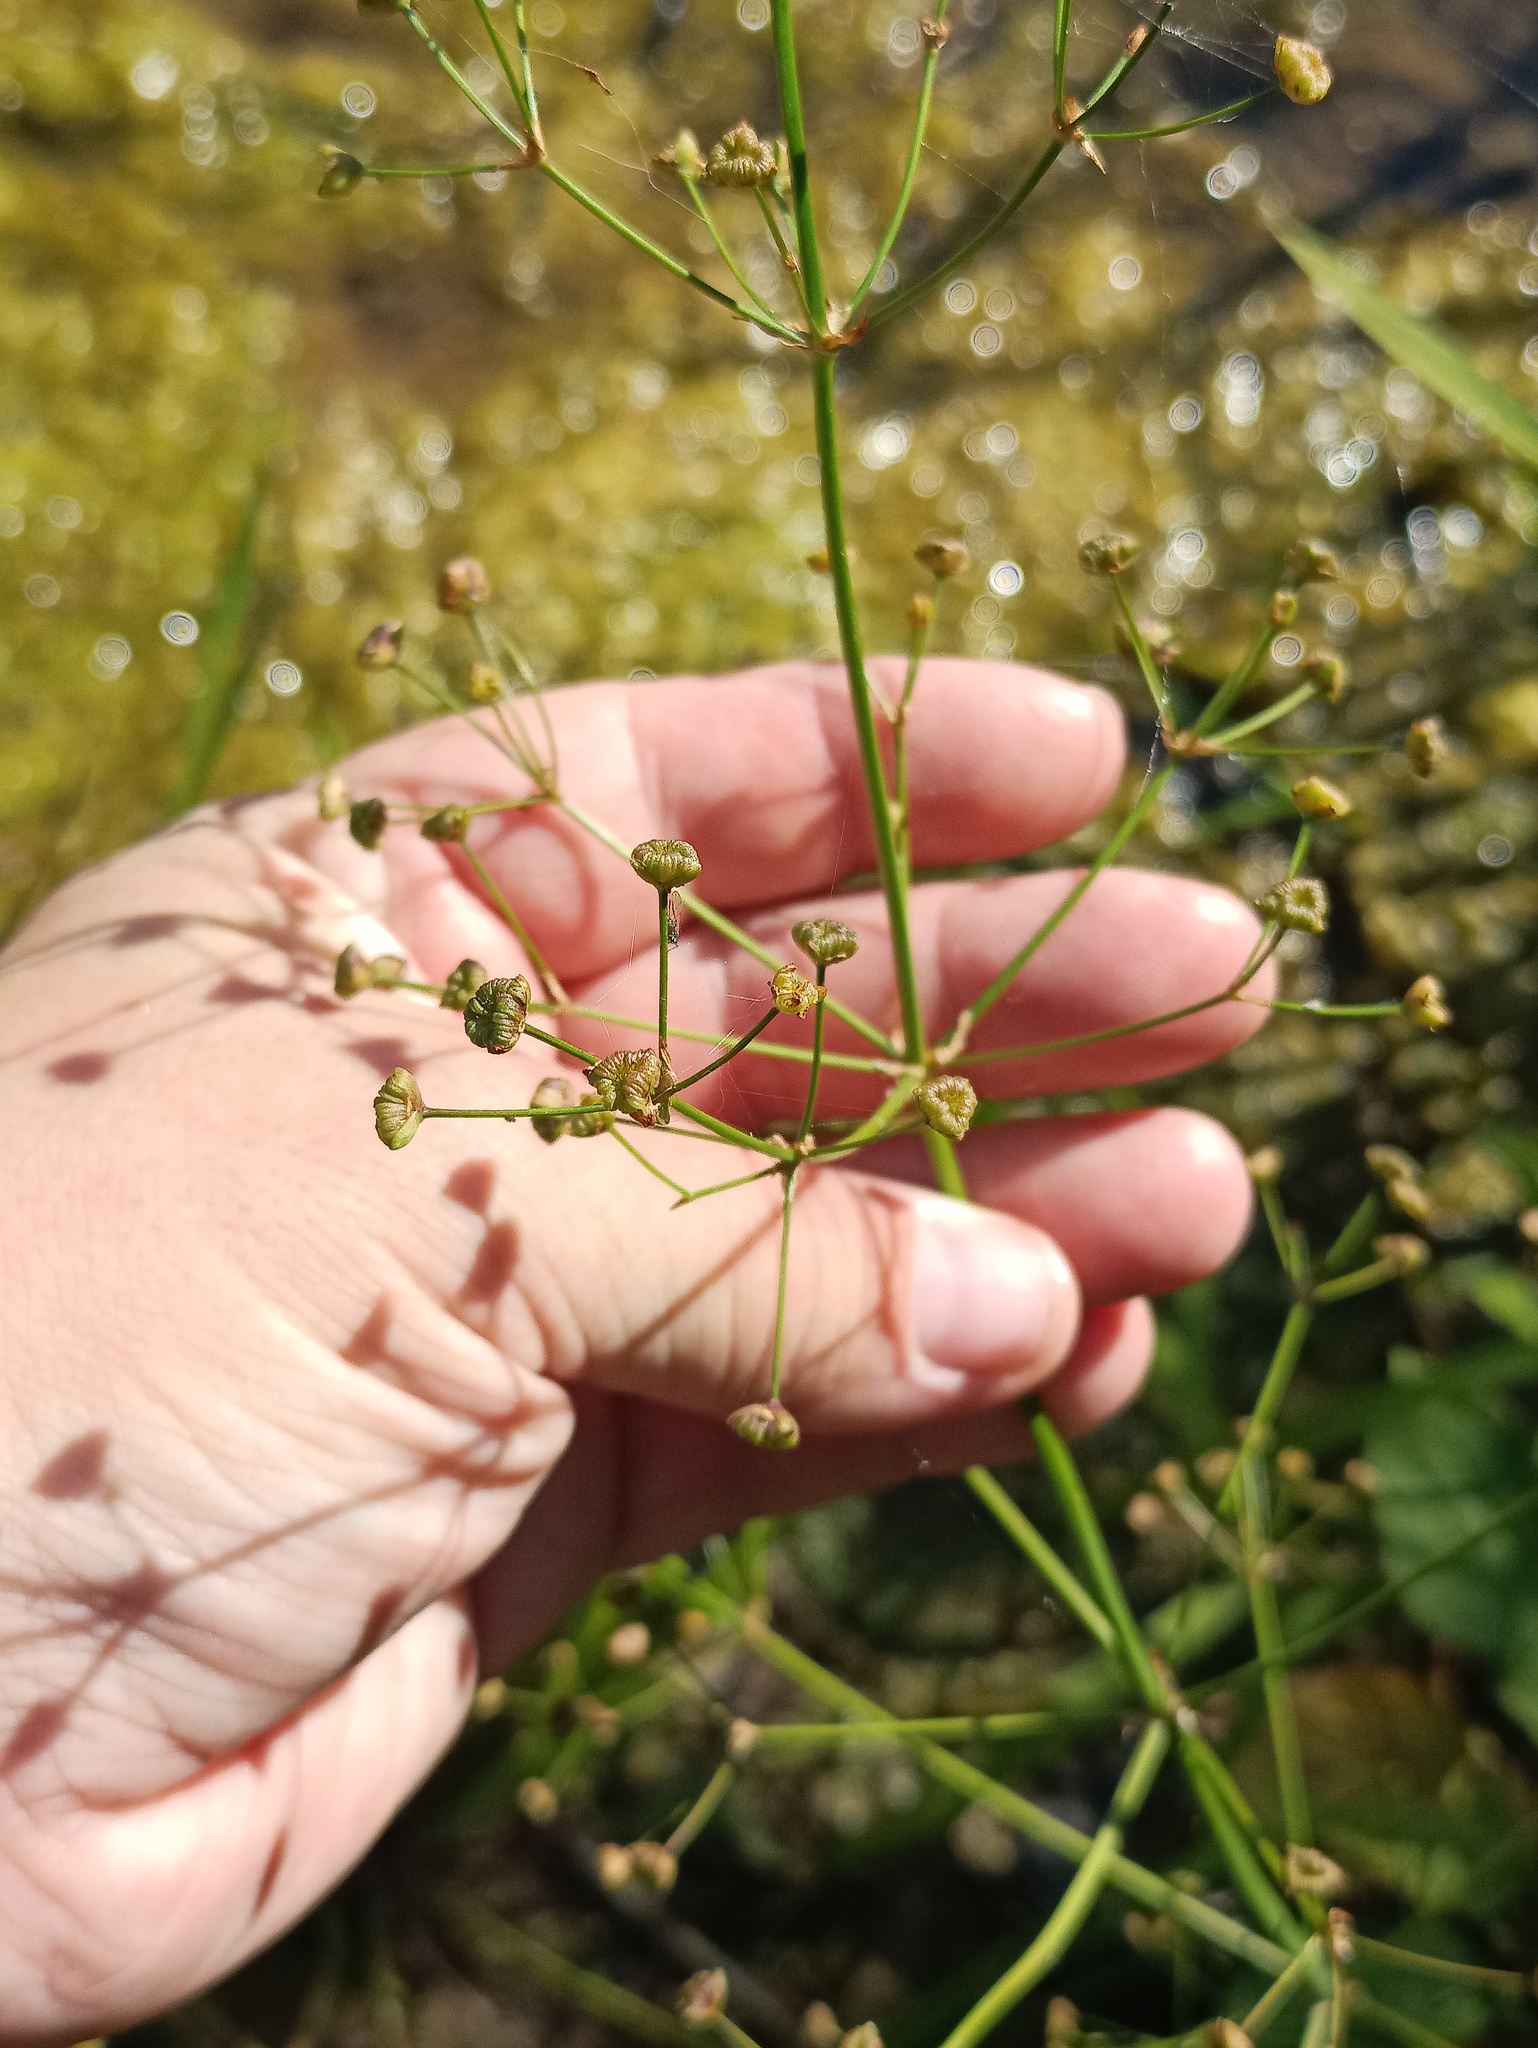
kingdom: Plantae
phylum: Tracheophyta
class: Liliopsida
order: Alismatales
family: Alismataceae
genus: Alisma
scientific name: Alisma plantago-aquatica
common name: Water-plantain
